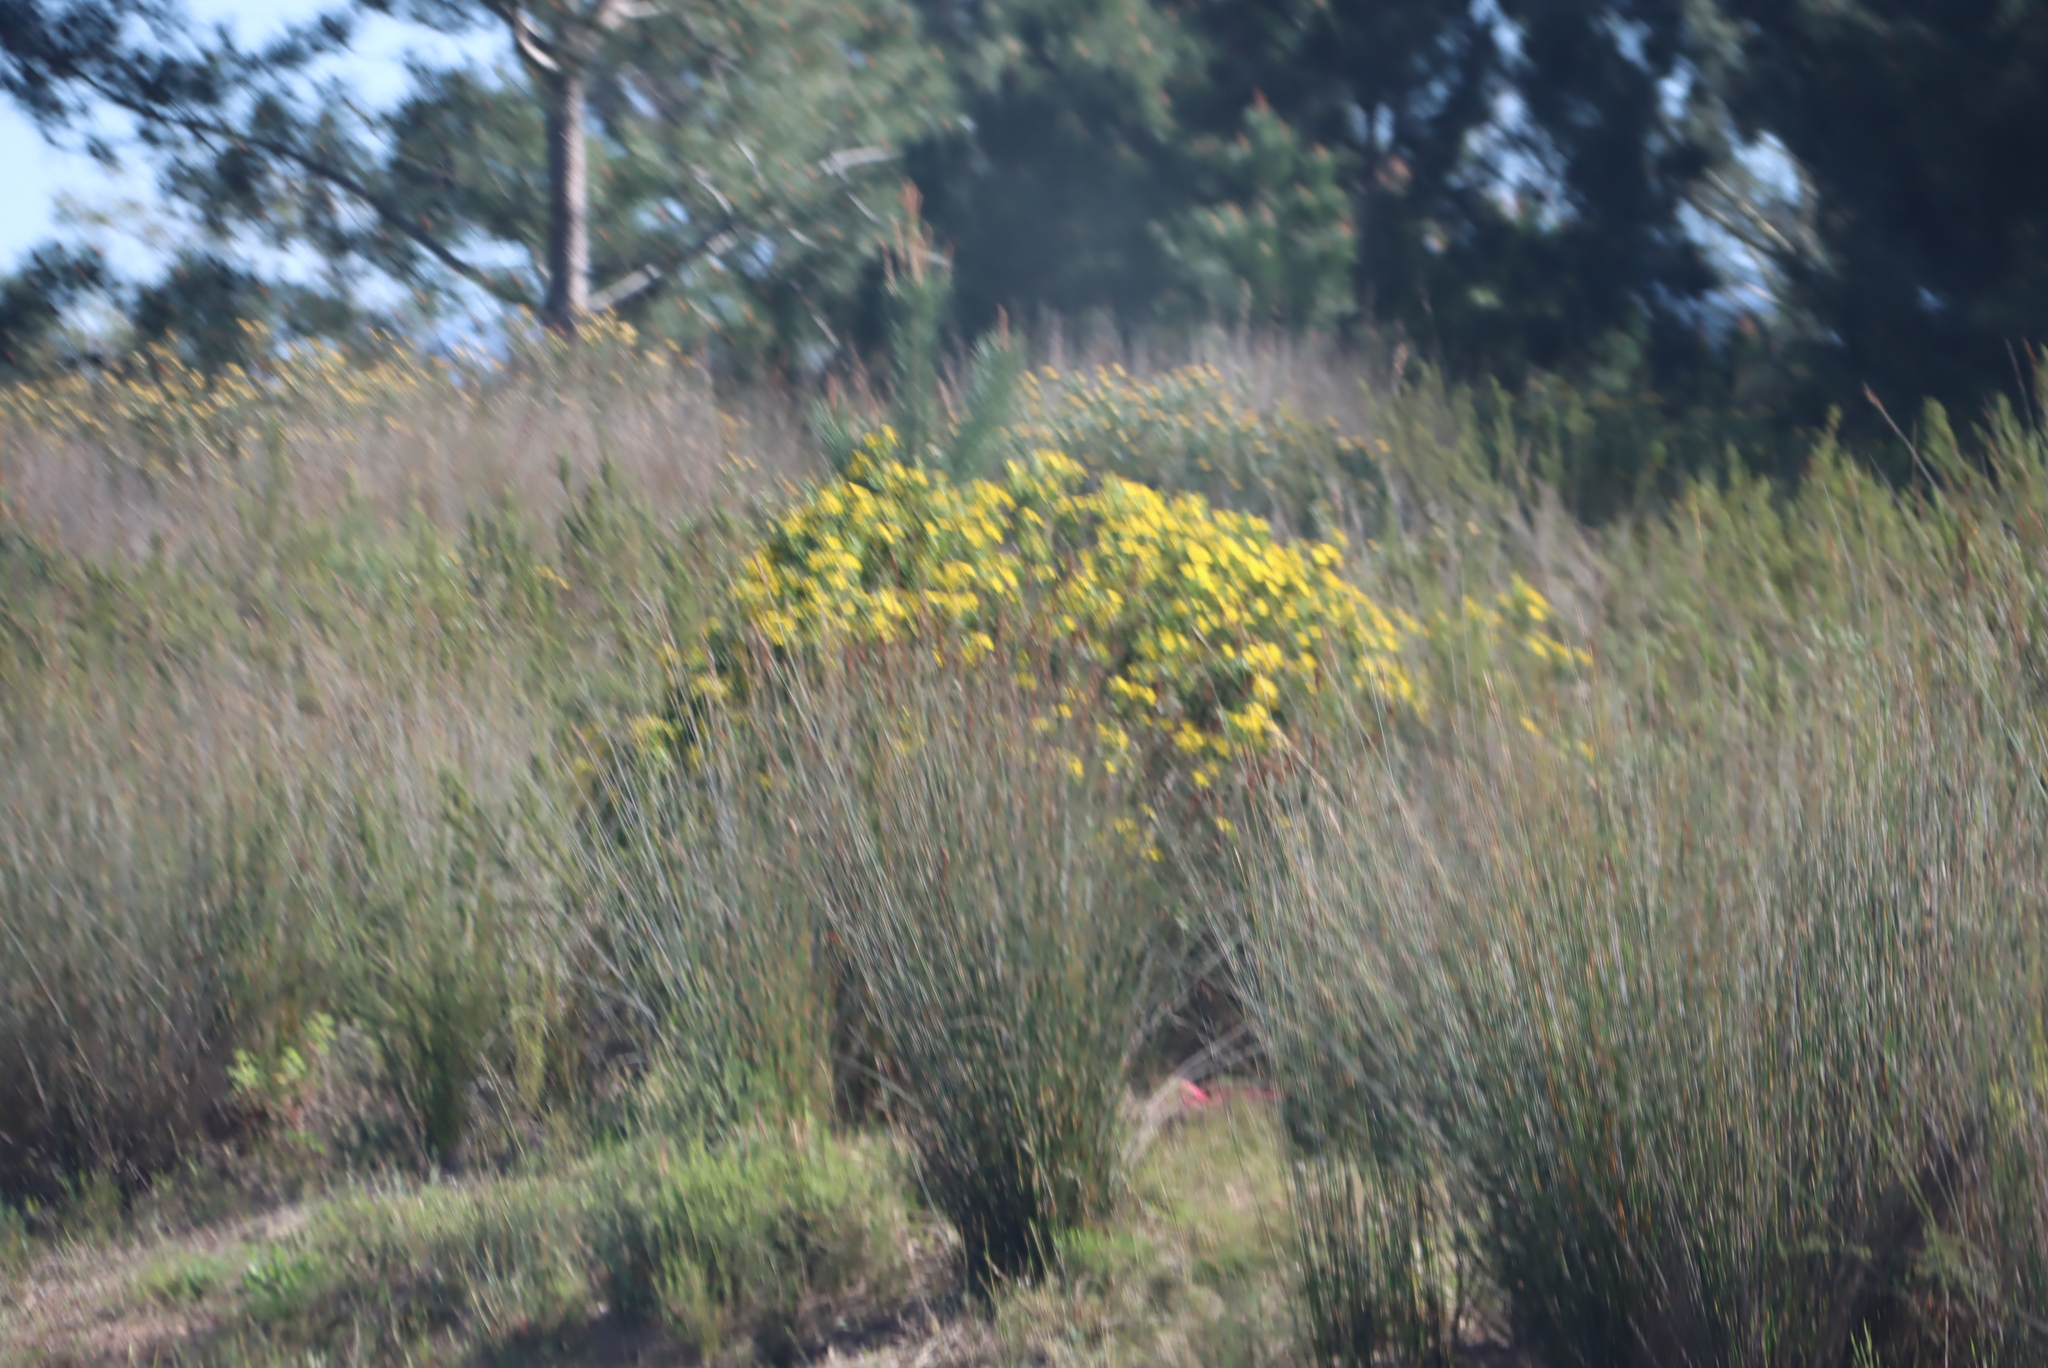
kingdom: Plantae
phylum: Tracheophyta
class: Magnoliopsida
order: Asterales
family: Asteraceae
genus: Osteospermum
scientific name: Osteospermum moniliferum
